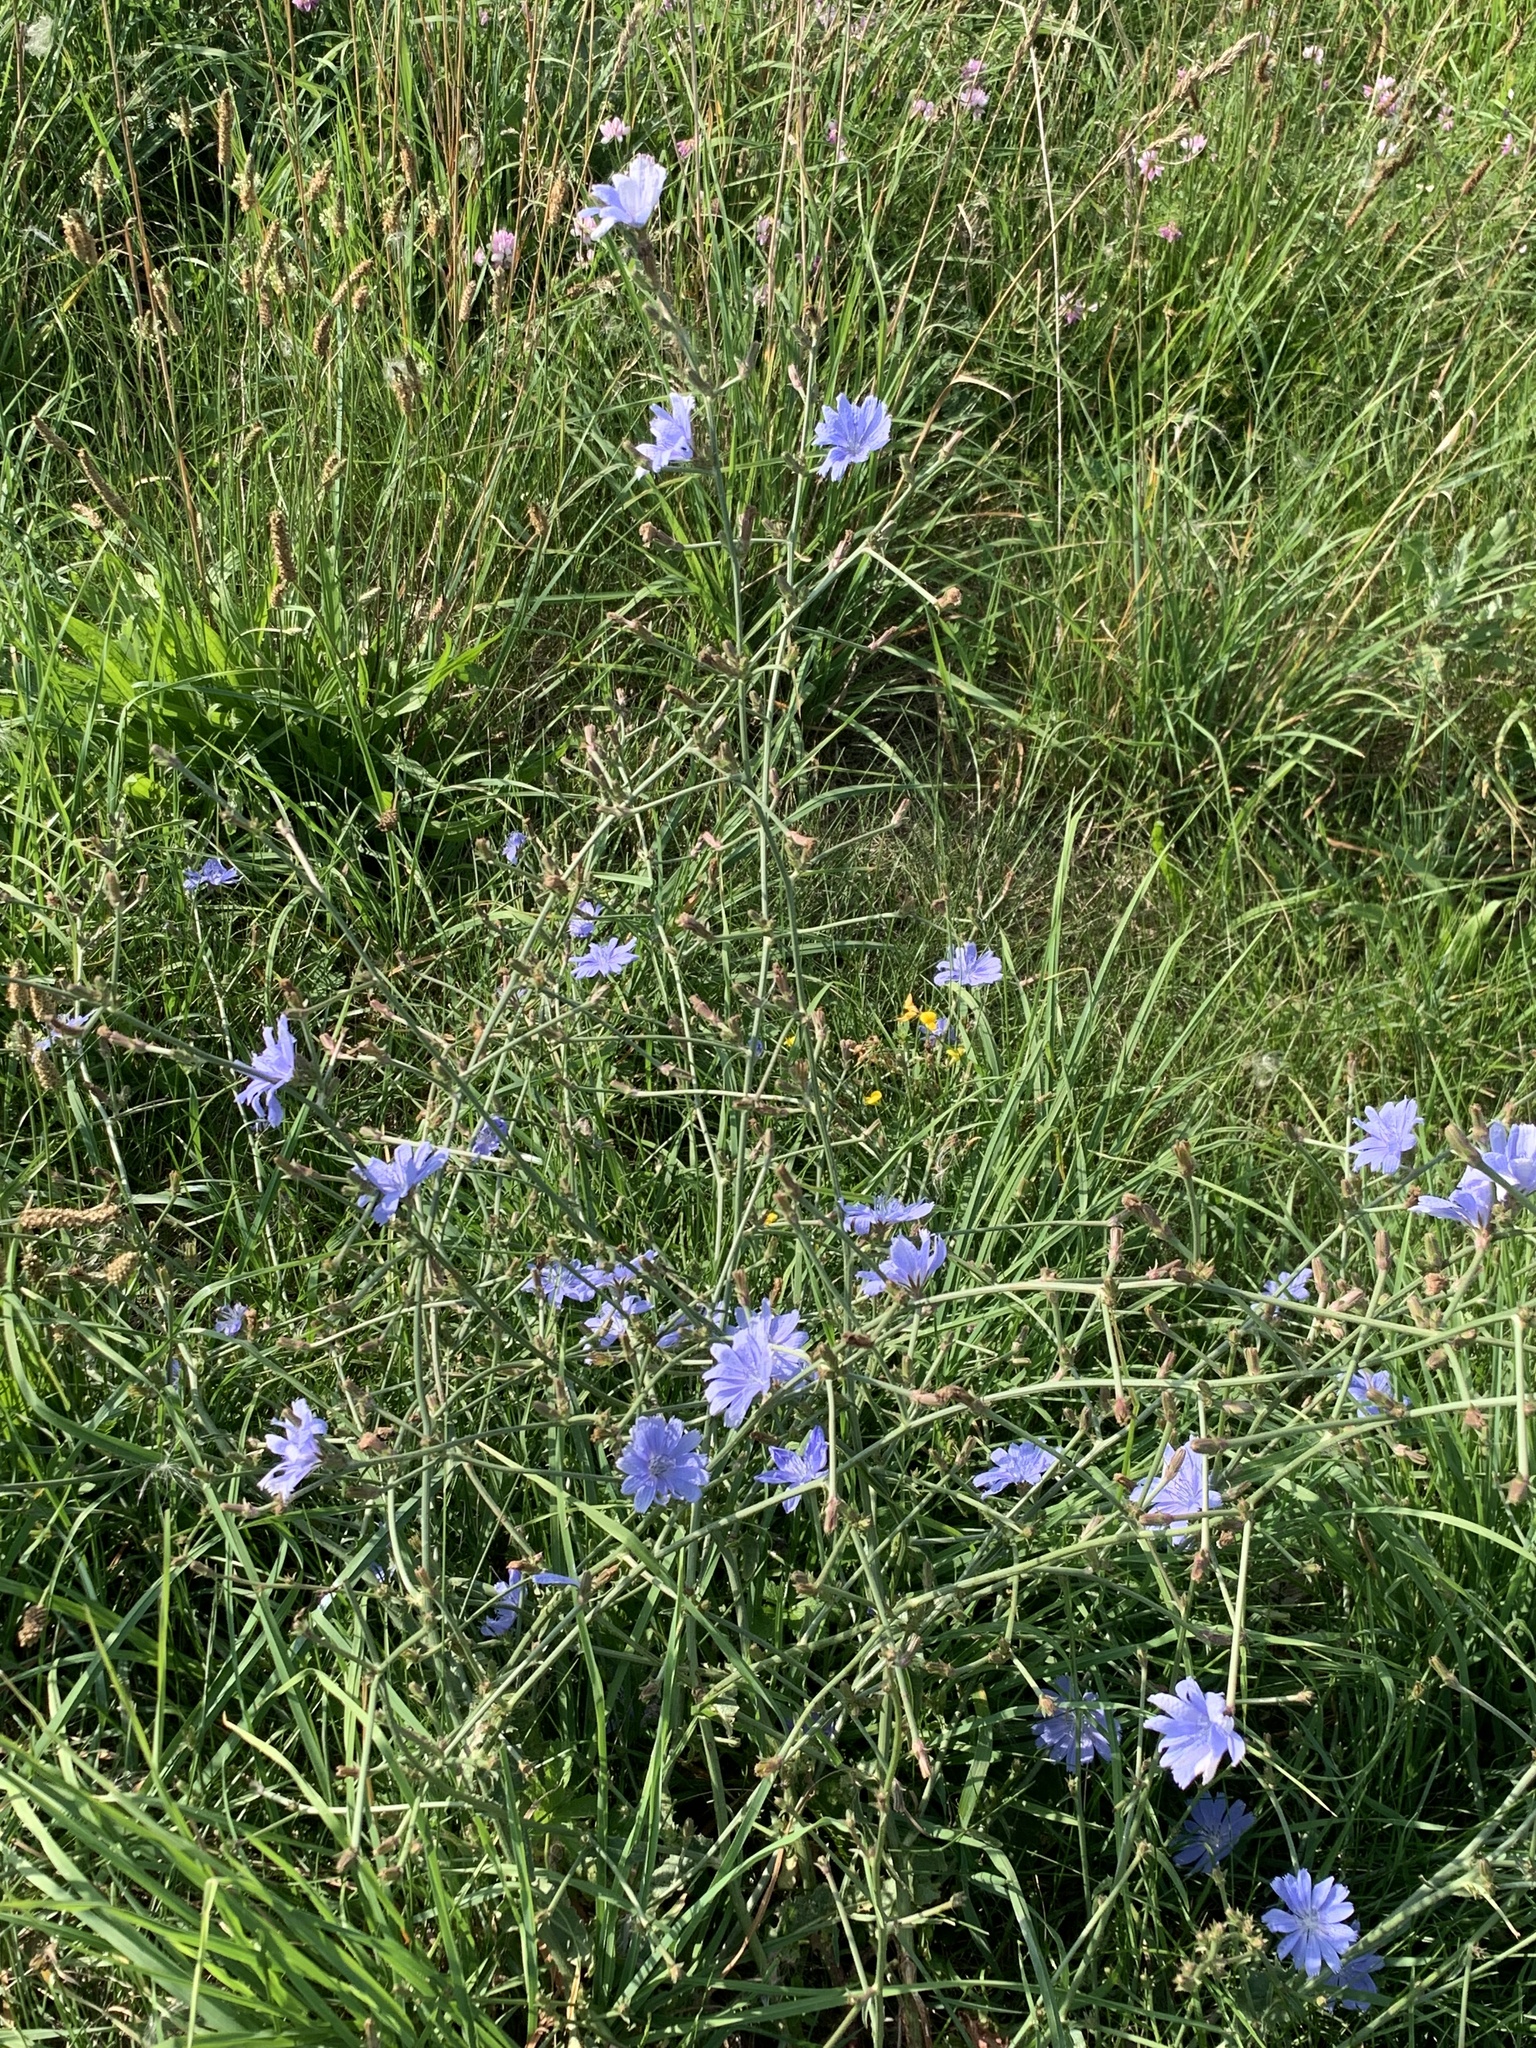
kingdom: Plantae
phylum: Tracheophyta
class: Magnoliopsida
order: Asterales
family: Asteraceae
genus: Cichorium
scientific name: Cichorium intybus
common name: Chicory
